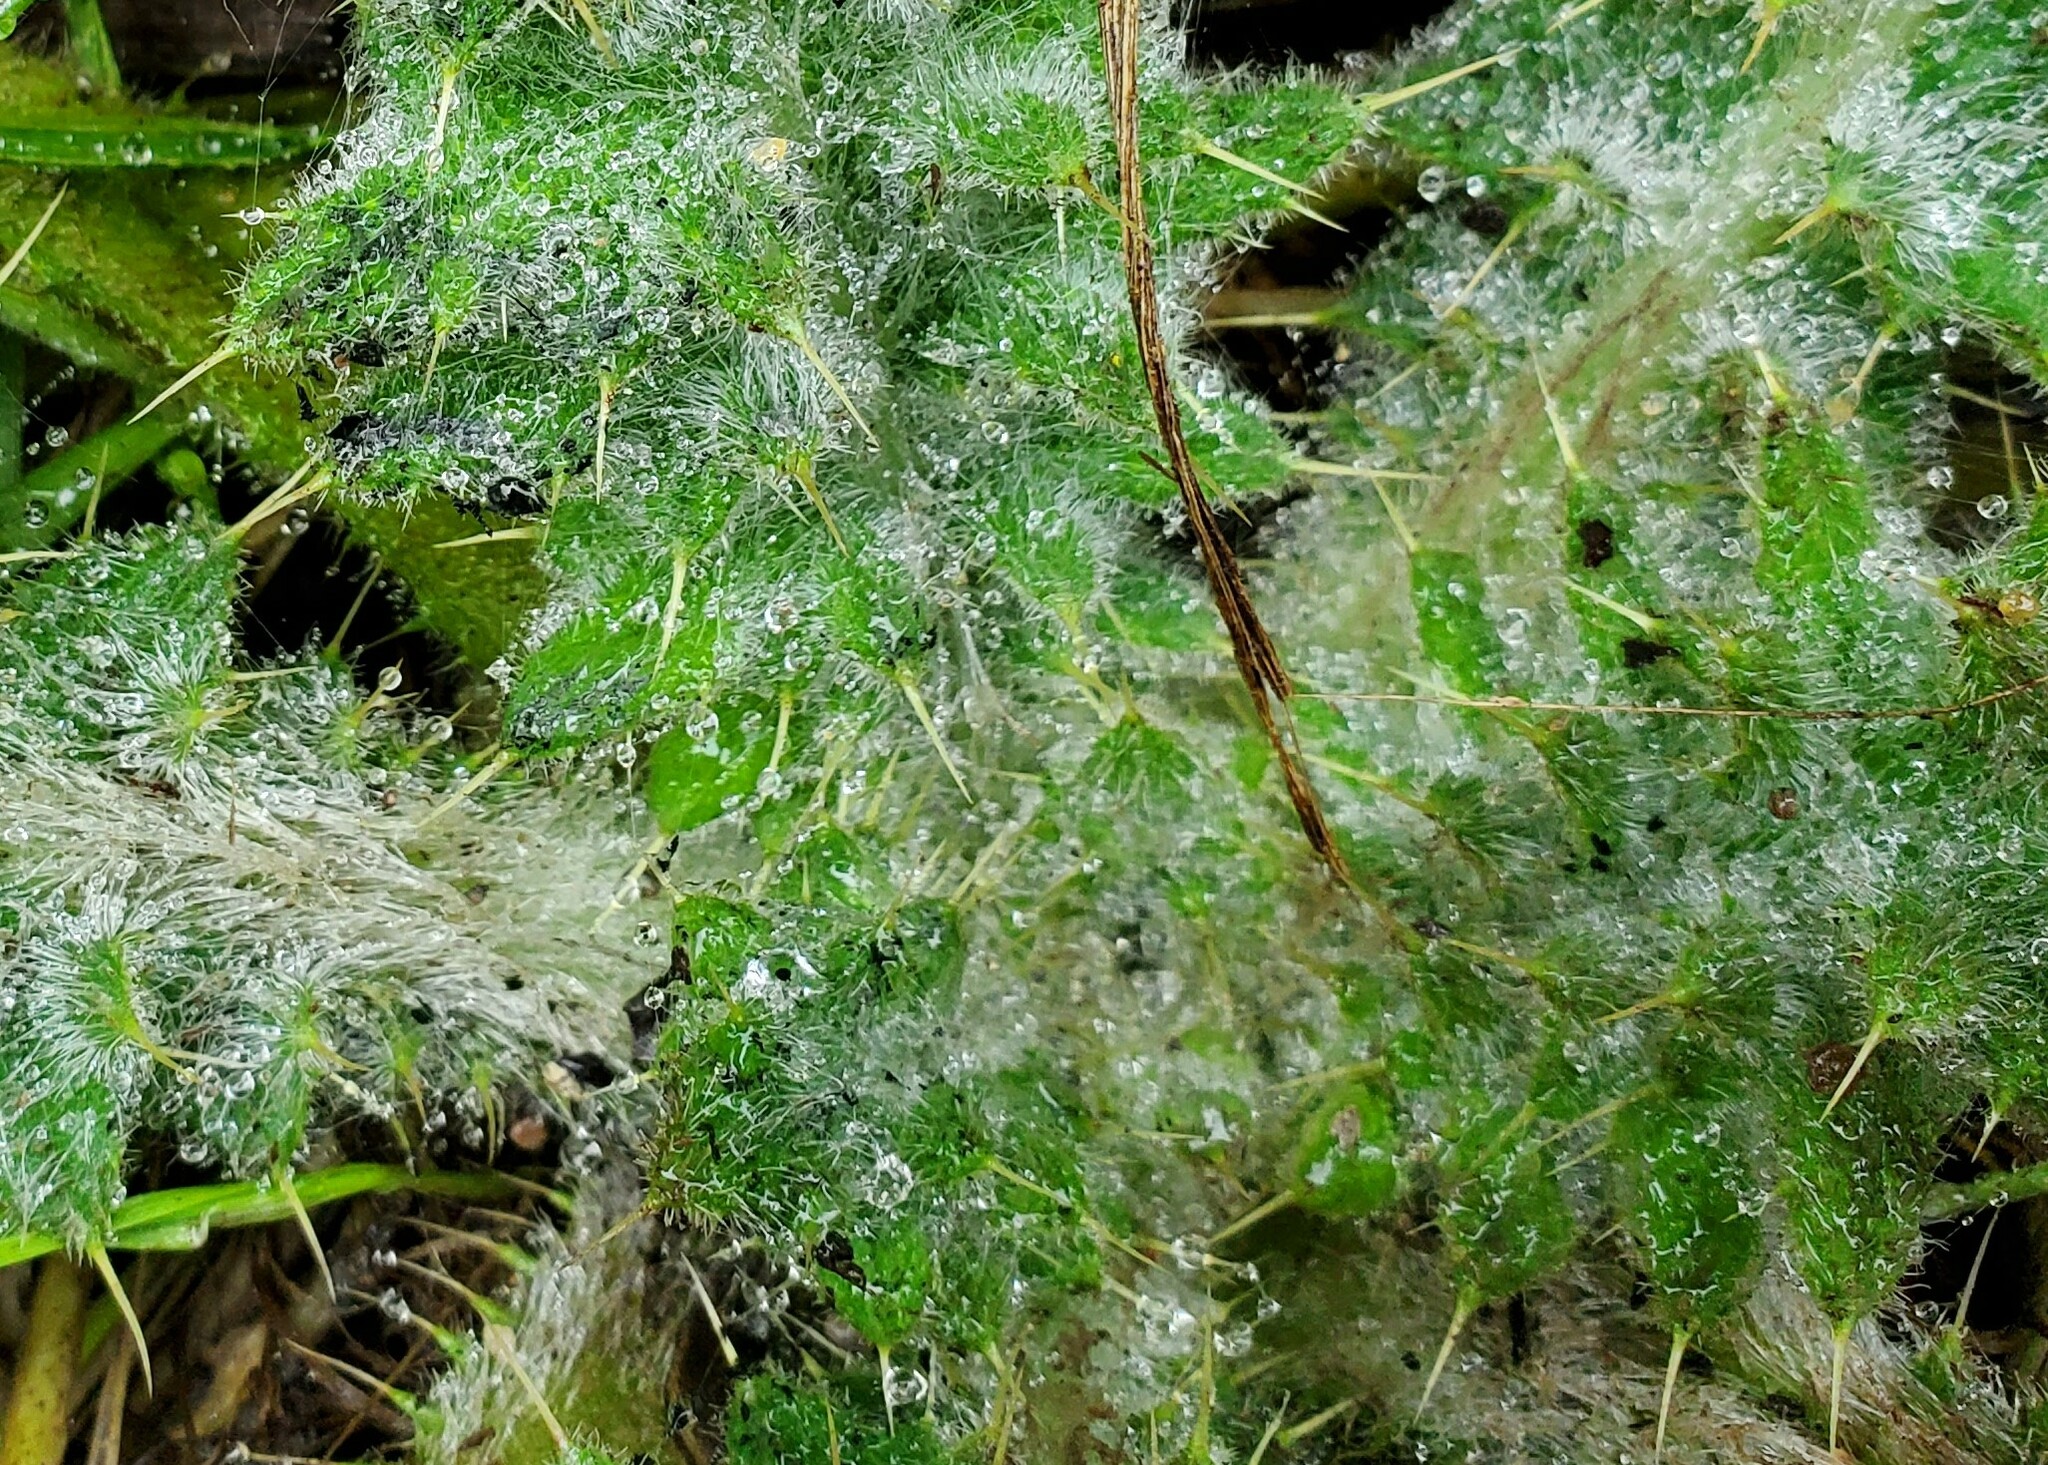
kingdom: Plantae
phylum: Tracheophyta
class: Magnoliopsida
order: Asterales
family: Asteraceae
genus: Cirsium
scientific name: Cirsium vulgare
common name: Bull thistle
